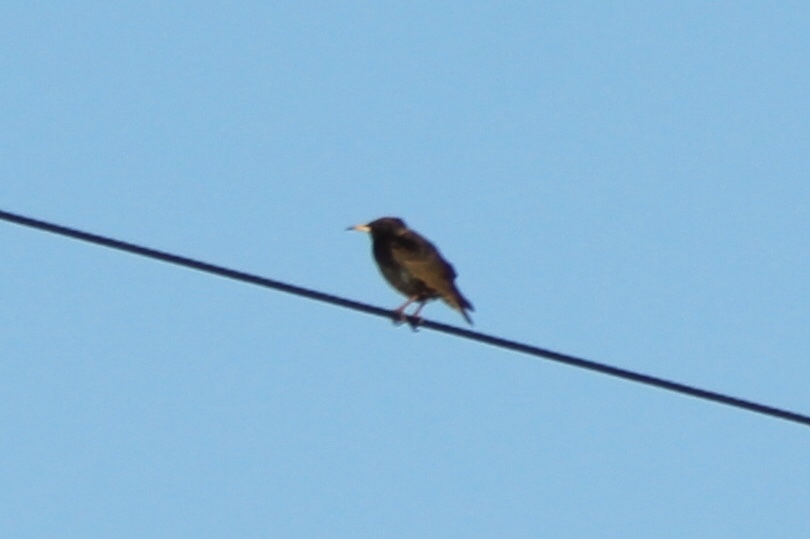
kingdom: Animalia
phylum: Chordata
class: Aves
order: Passeriformes
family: Sturnidae
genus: Sturnus
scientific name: Sturnus vulgaris
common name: Common starling
